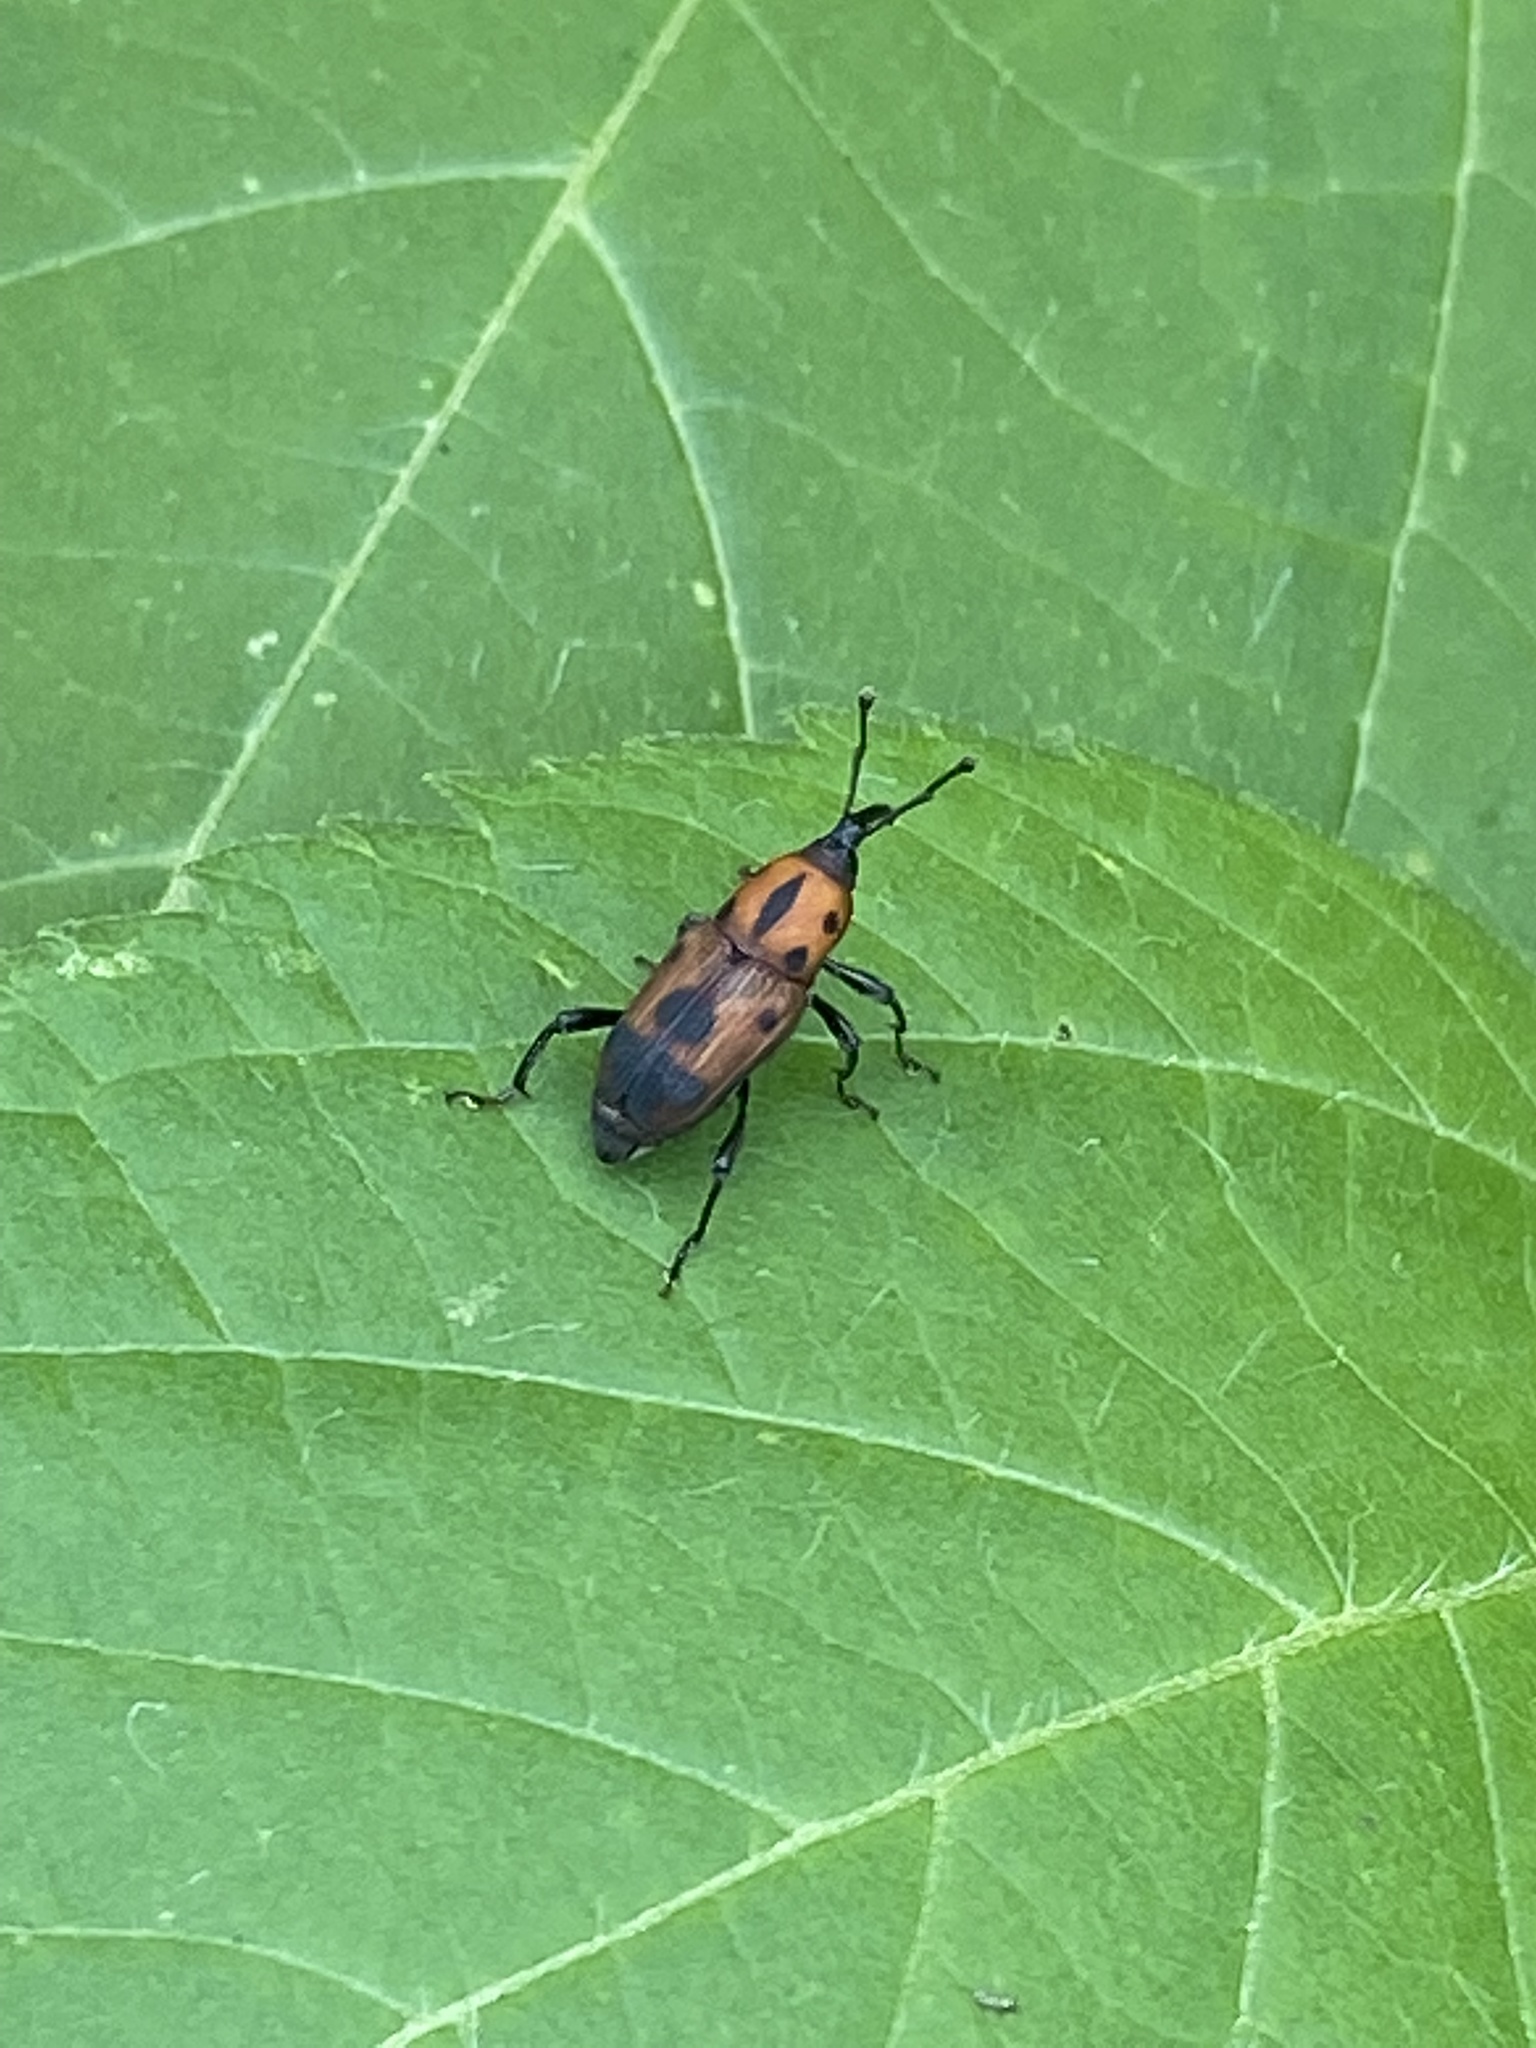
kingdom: Animalia
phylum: Arthropoda
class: Insecta
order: Coleoptera
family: Dryophthoridae
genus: Rhodobaenus
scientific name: Rhodobaenus quinquepunctatus
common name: Cocklebur weevil
